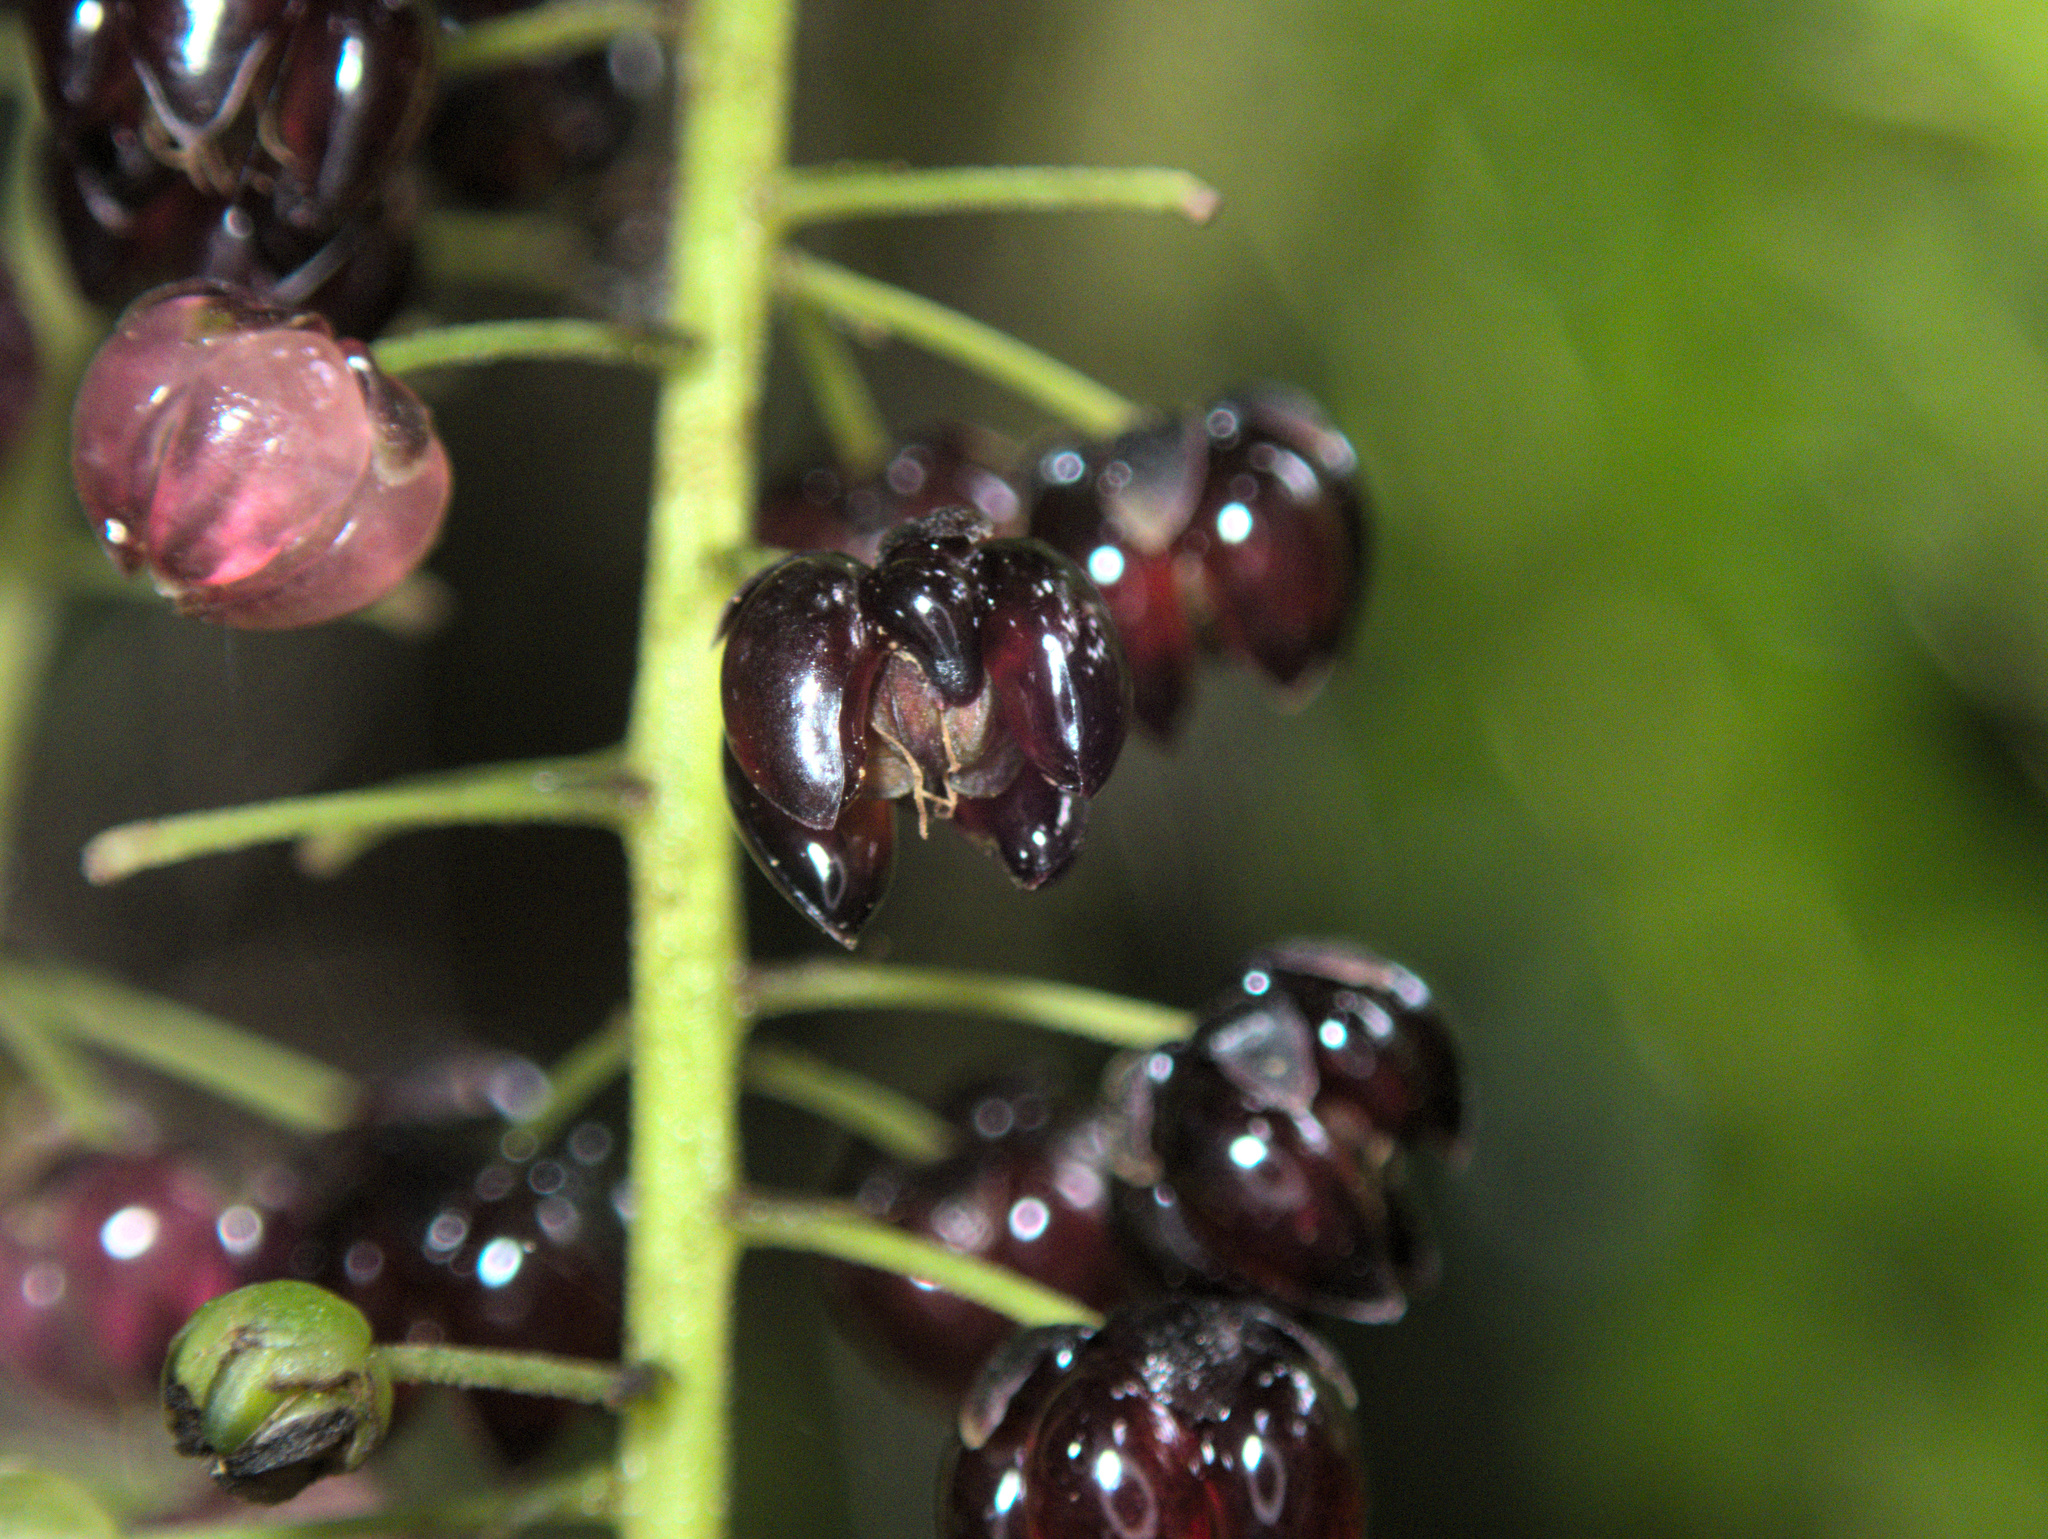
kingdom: Plantae
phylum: Tracheophyta
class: Magnoliopsida
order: Cucurbitales
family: Coriariaceae
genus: Coriaria
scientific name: Coriaria arborea
